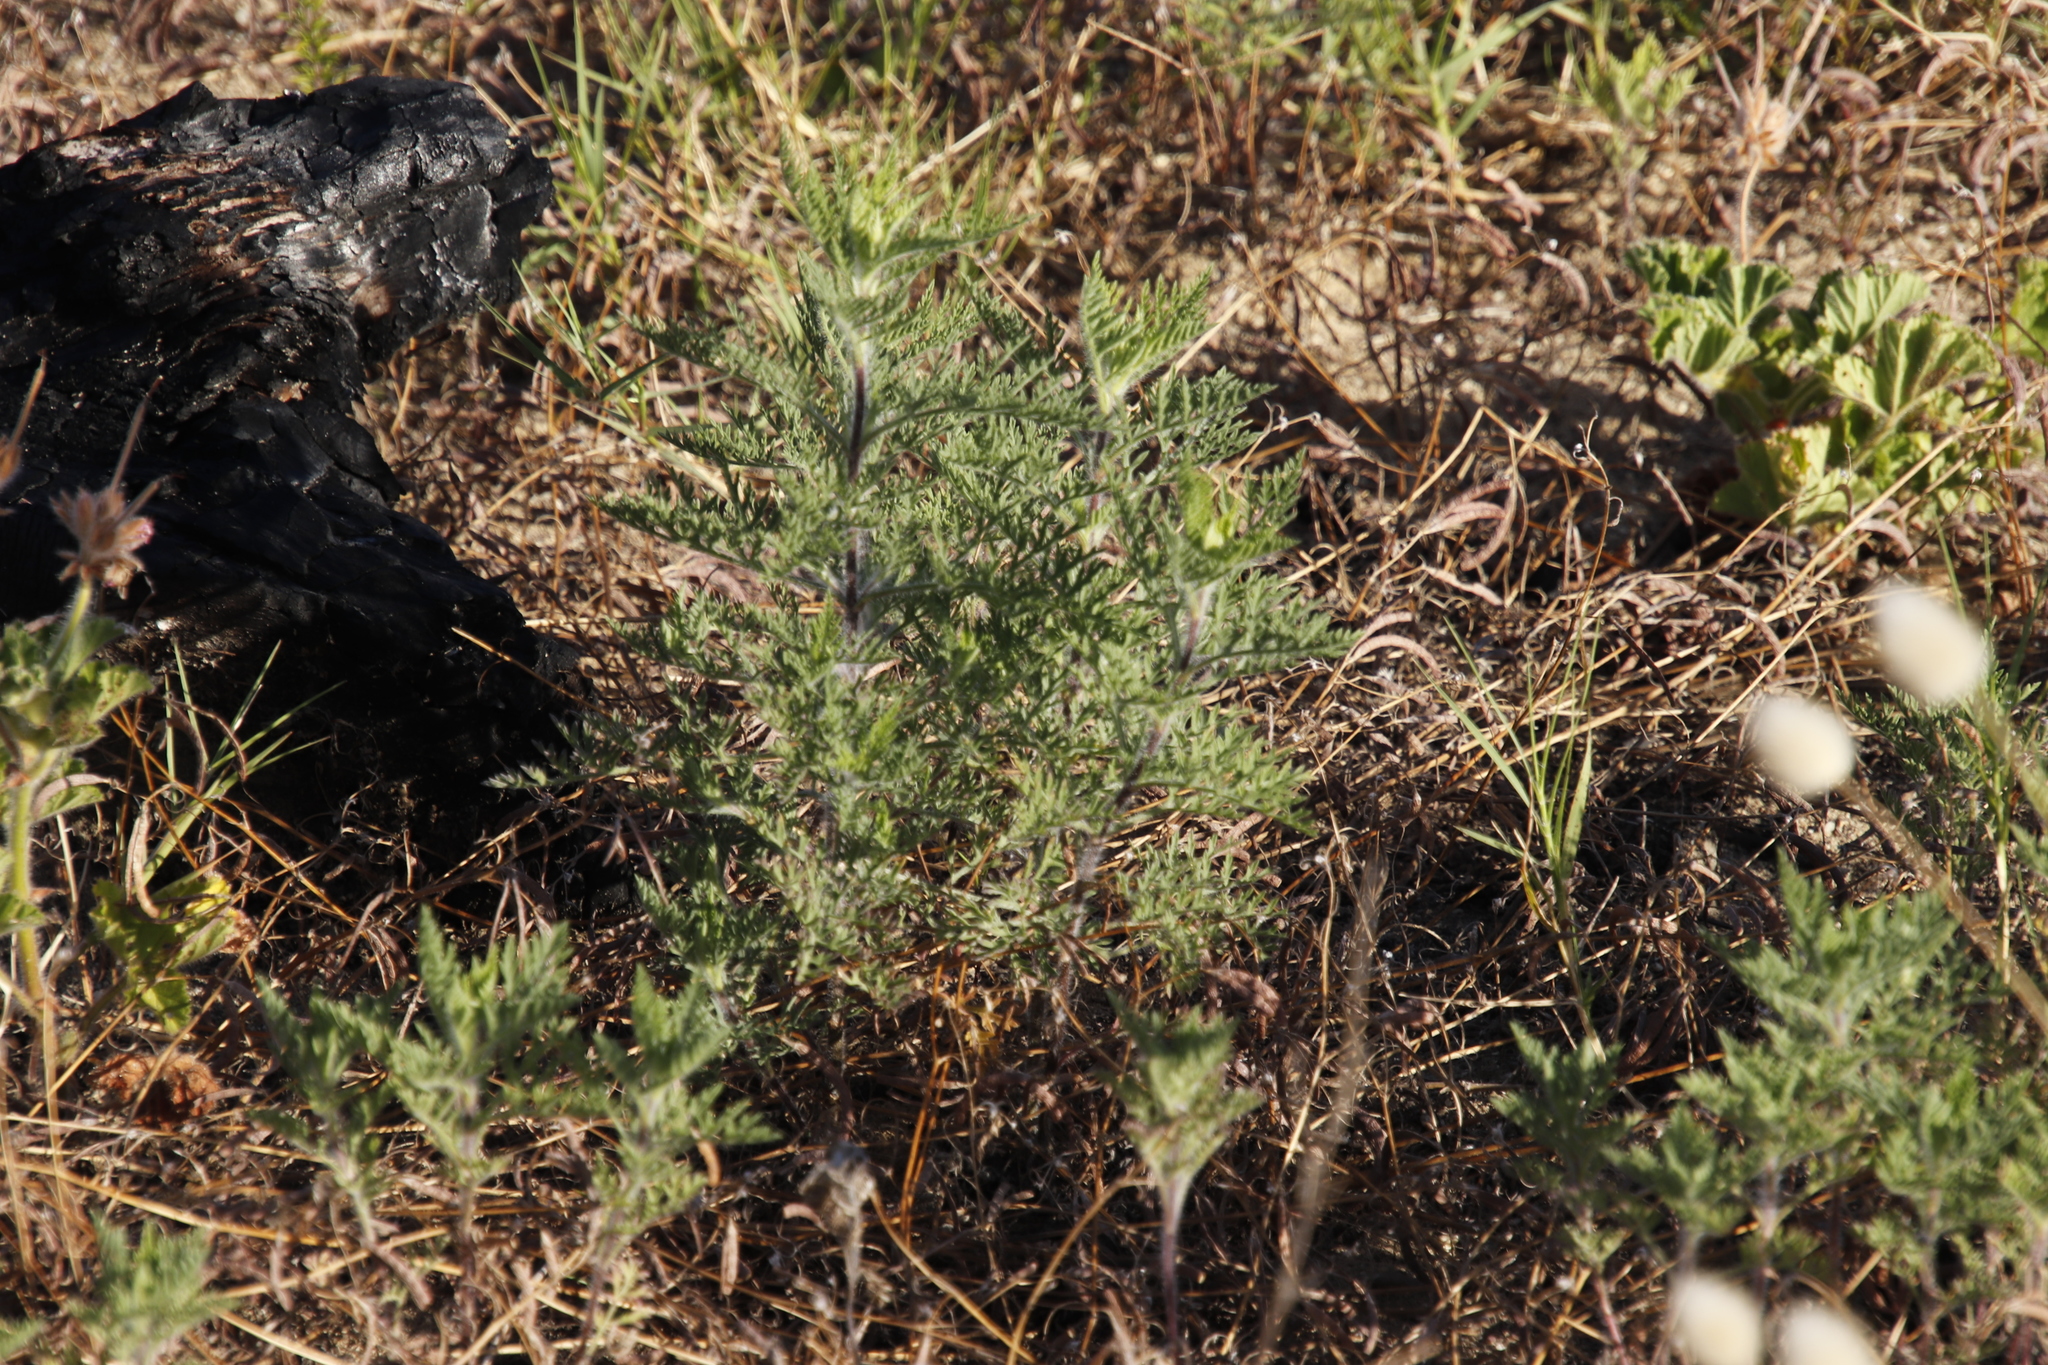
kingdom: Plantae
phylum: Tracheophyta
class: Magnoliopsida
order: Asterales
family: Asteraceae
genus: Ambrosia
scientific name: Ambrosia tenuifolia
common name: Lacy ambrosia
